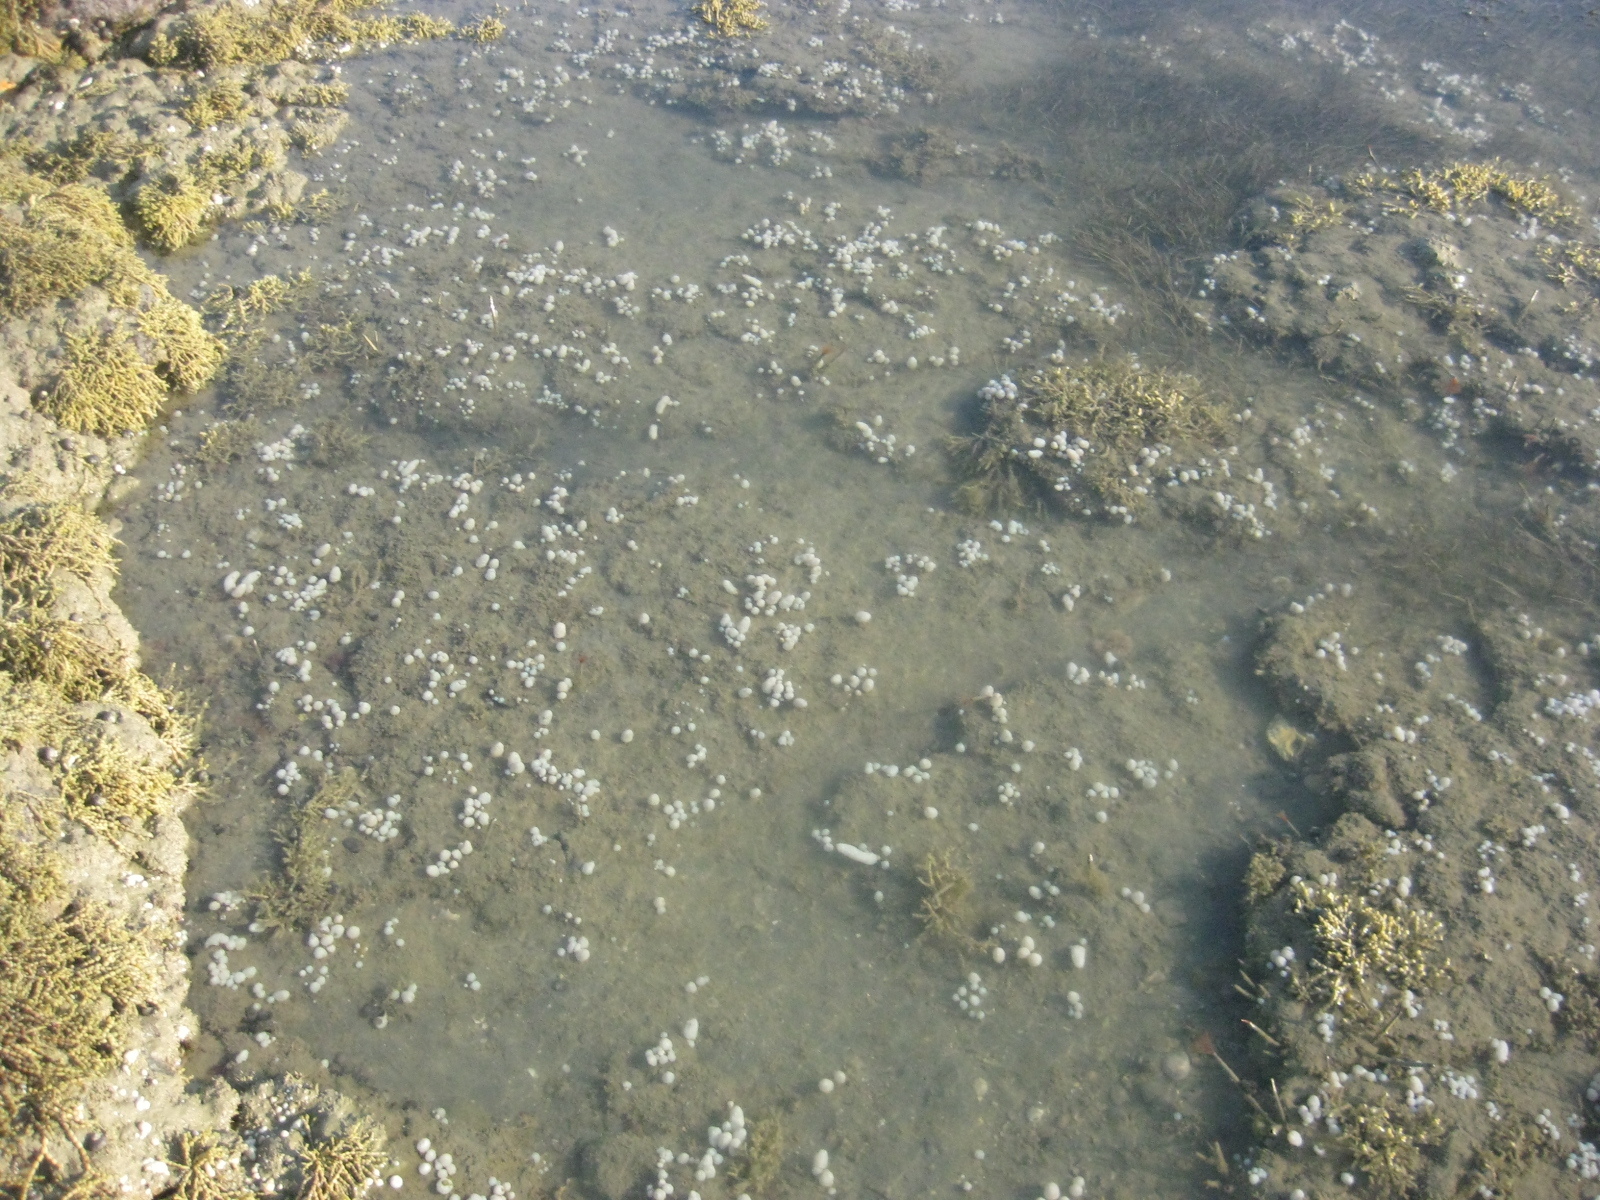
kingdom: Animalia
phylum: Chordata
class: Ascidiacea
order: Aplousobranchia
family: Polycitoridae
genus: Eudistoma
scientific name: Eudistoma elongatum
